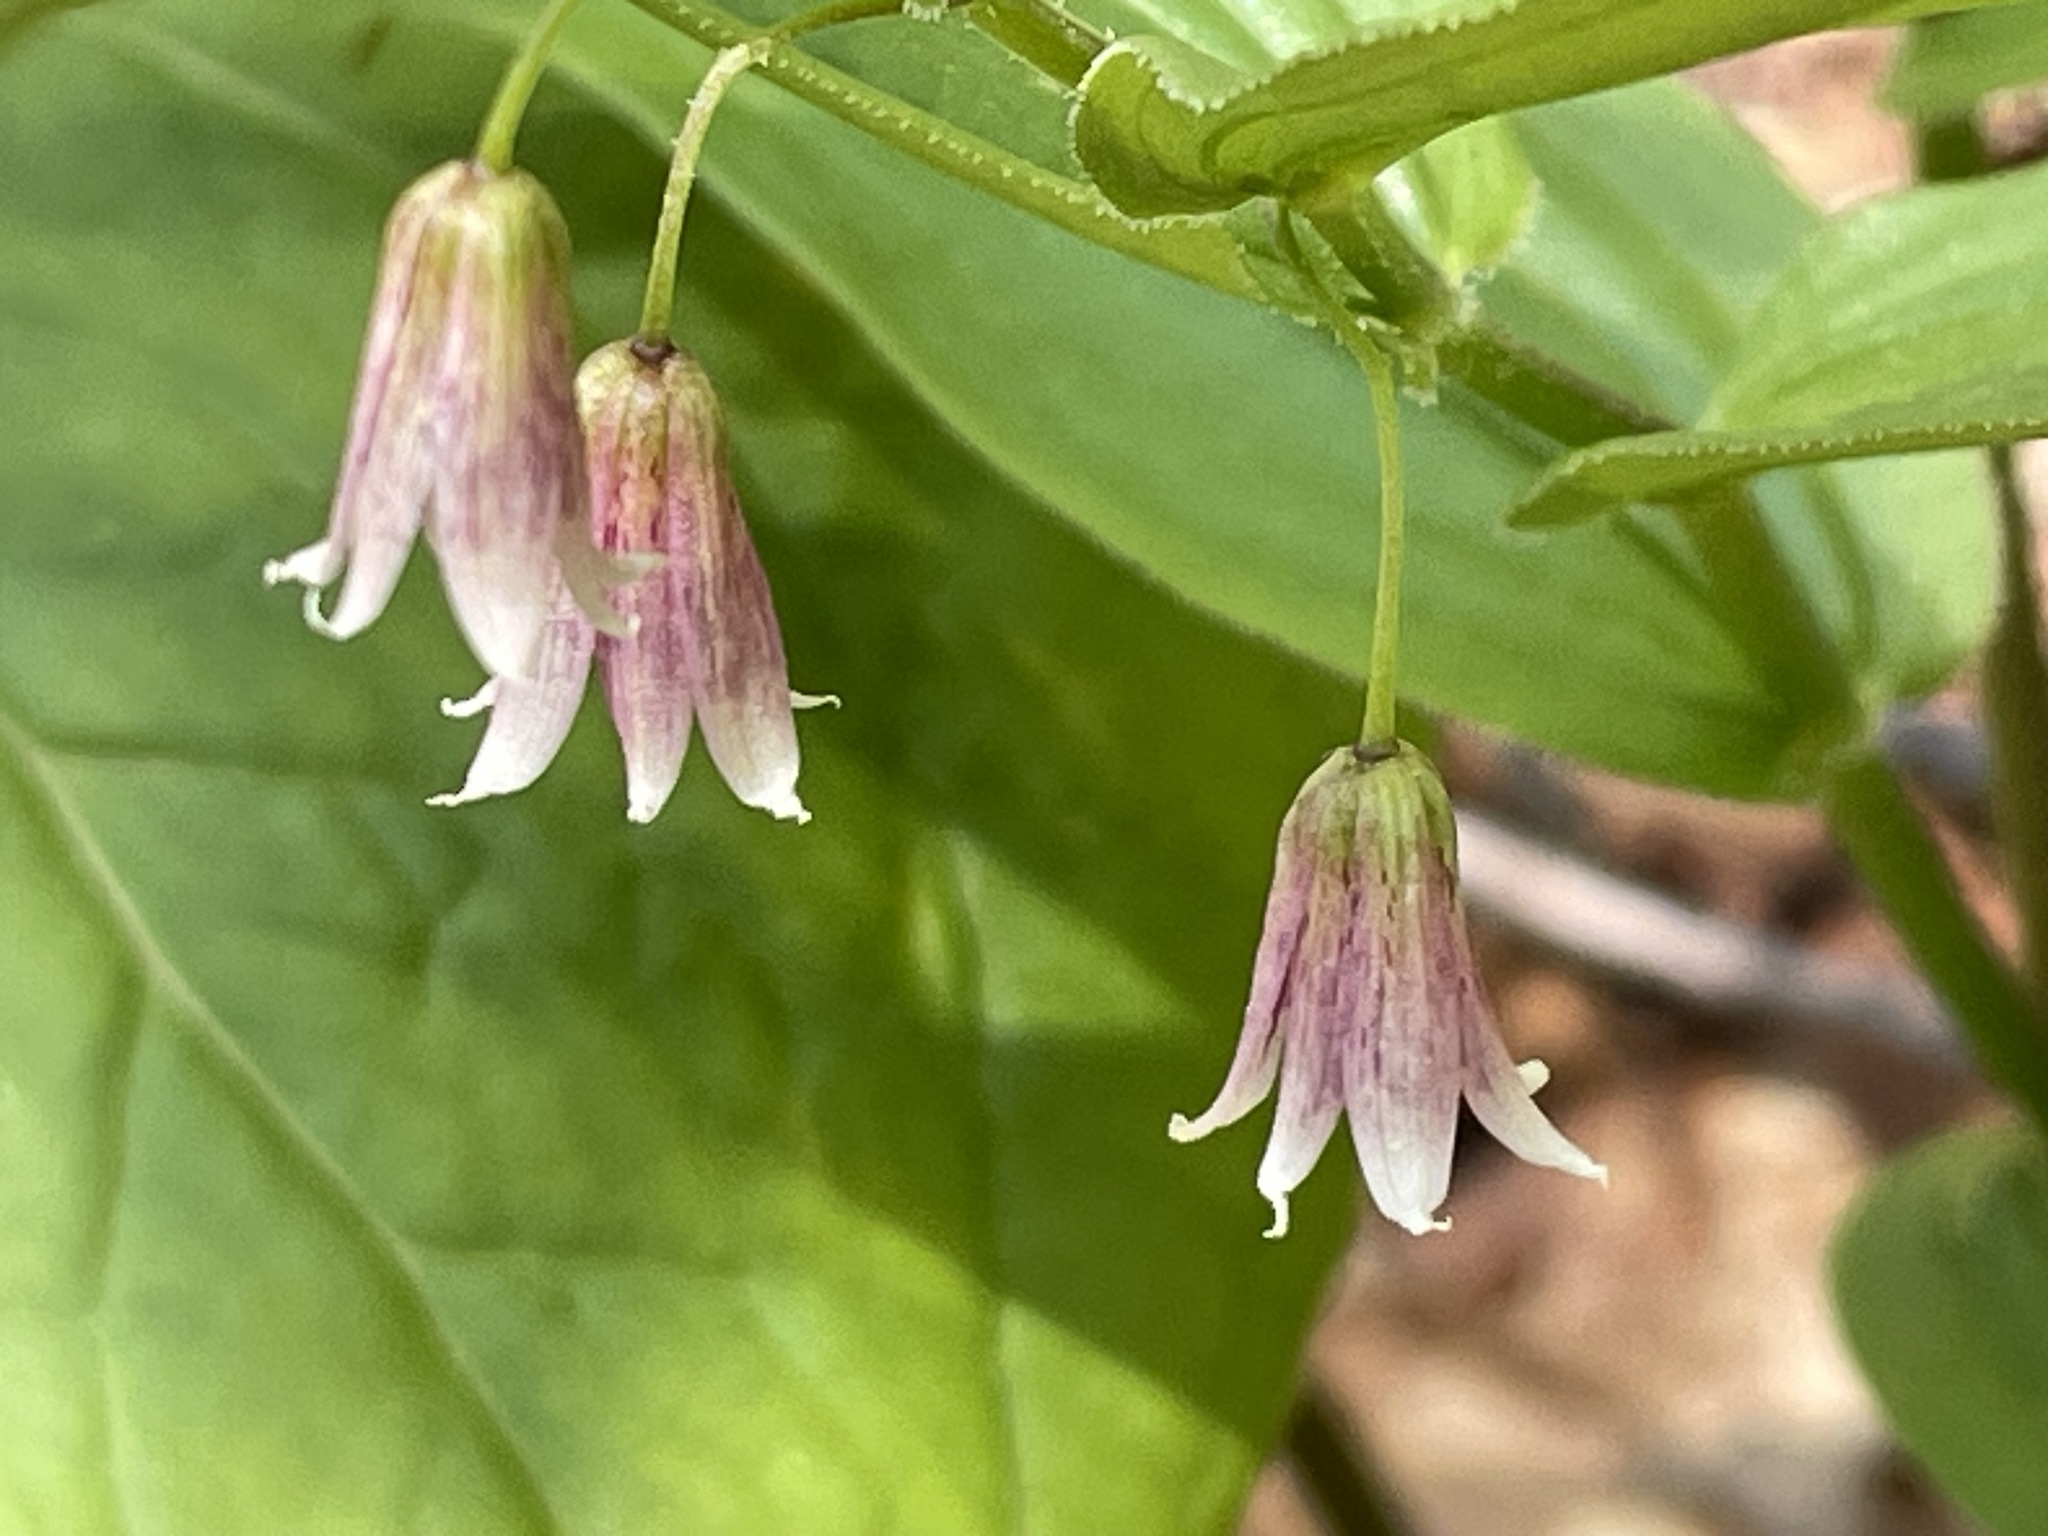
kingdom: Plantae
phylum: Tracheophyta
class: Liliopsida
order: Liliales
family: Liliaceae
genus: Streptopus
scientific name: Streptopus lanceolatus
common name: Rose mandarin
